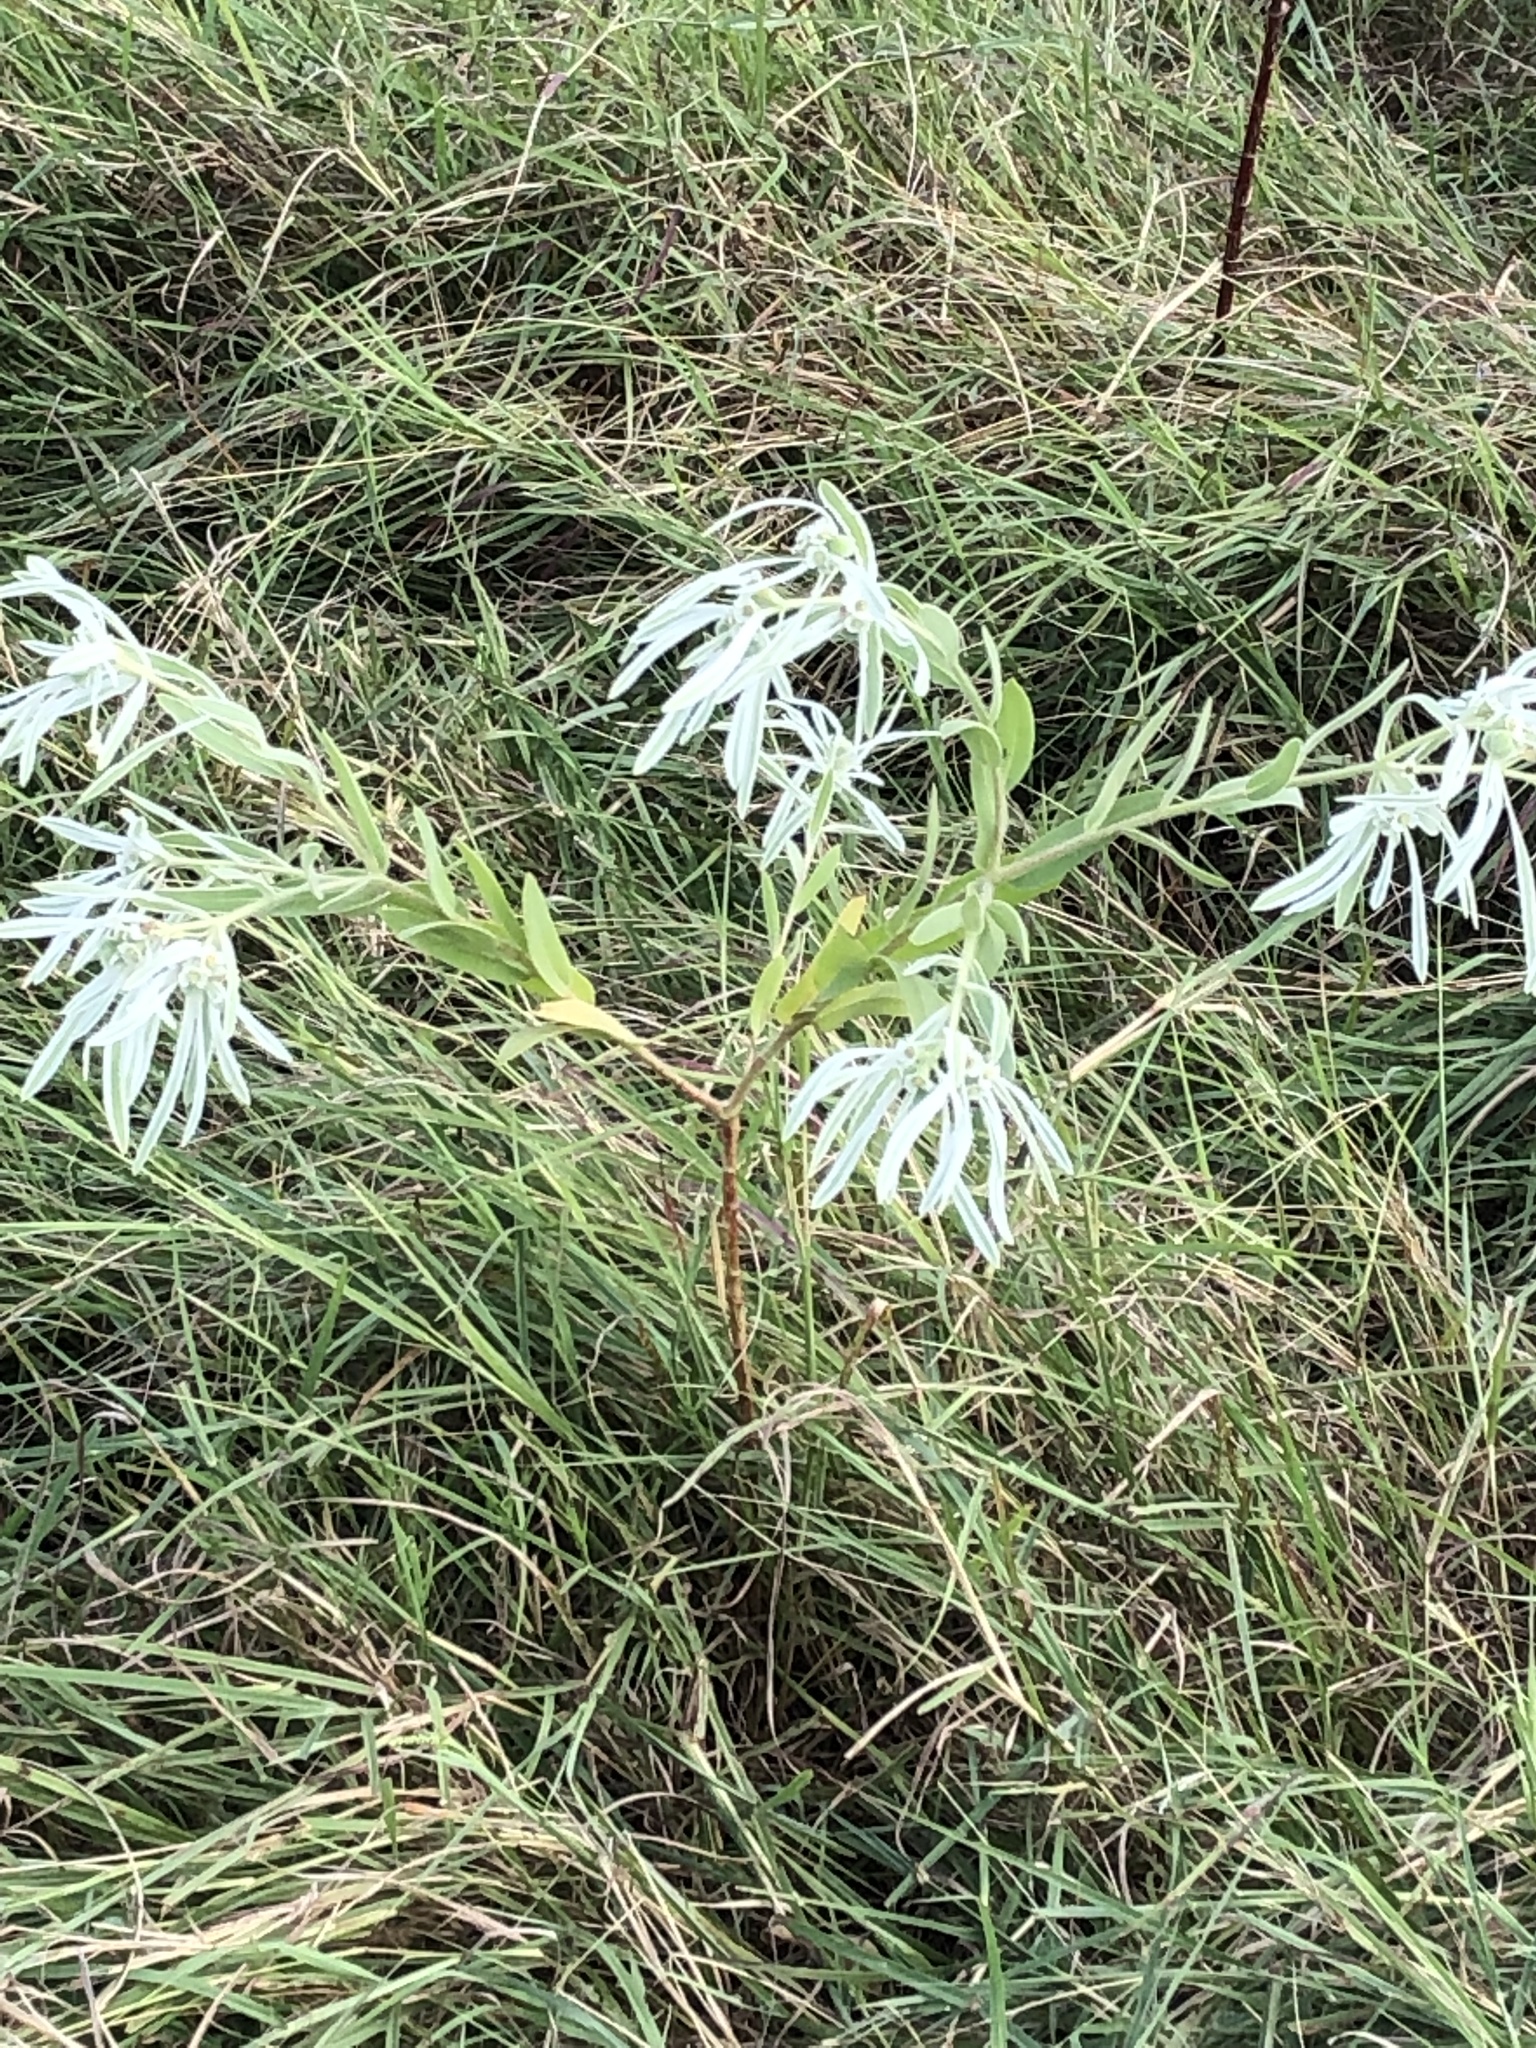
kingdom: Plantae
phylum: Tracheophyta
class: Magnoliopsida
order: Malpighiales
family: Euphorbiaceae
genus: Euphorbia
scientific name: Euphorbia bicolor
